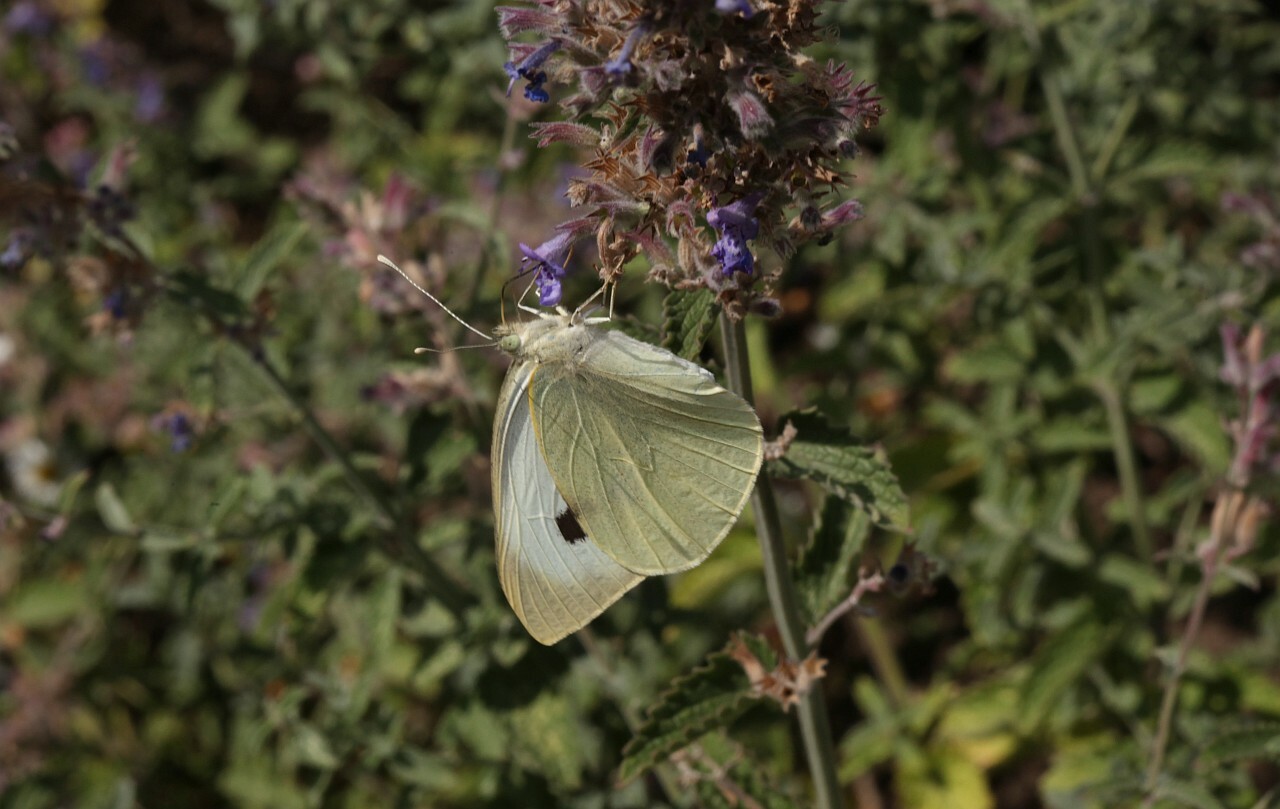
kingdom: Animalia
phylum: Arthropoda
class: Insecta
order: Lepidoptera
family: Pieridae
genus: Pieris
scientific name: Pieris brassicae
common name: Large white
